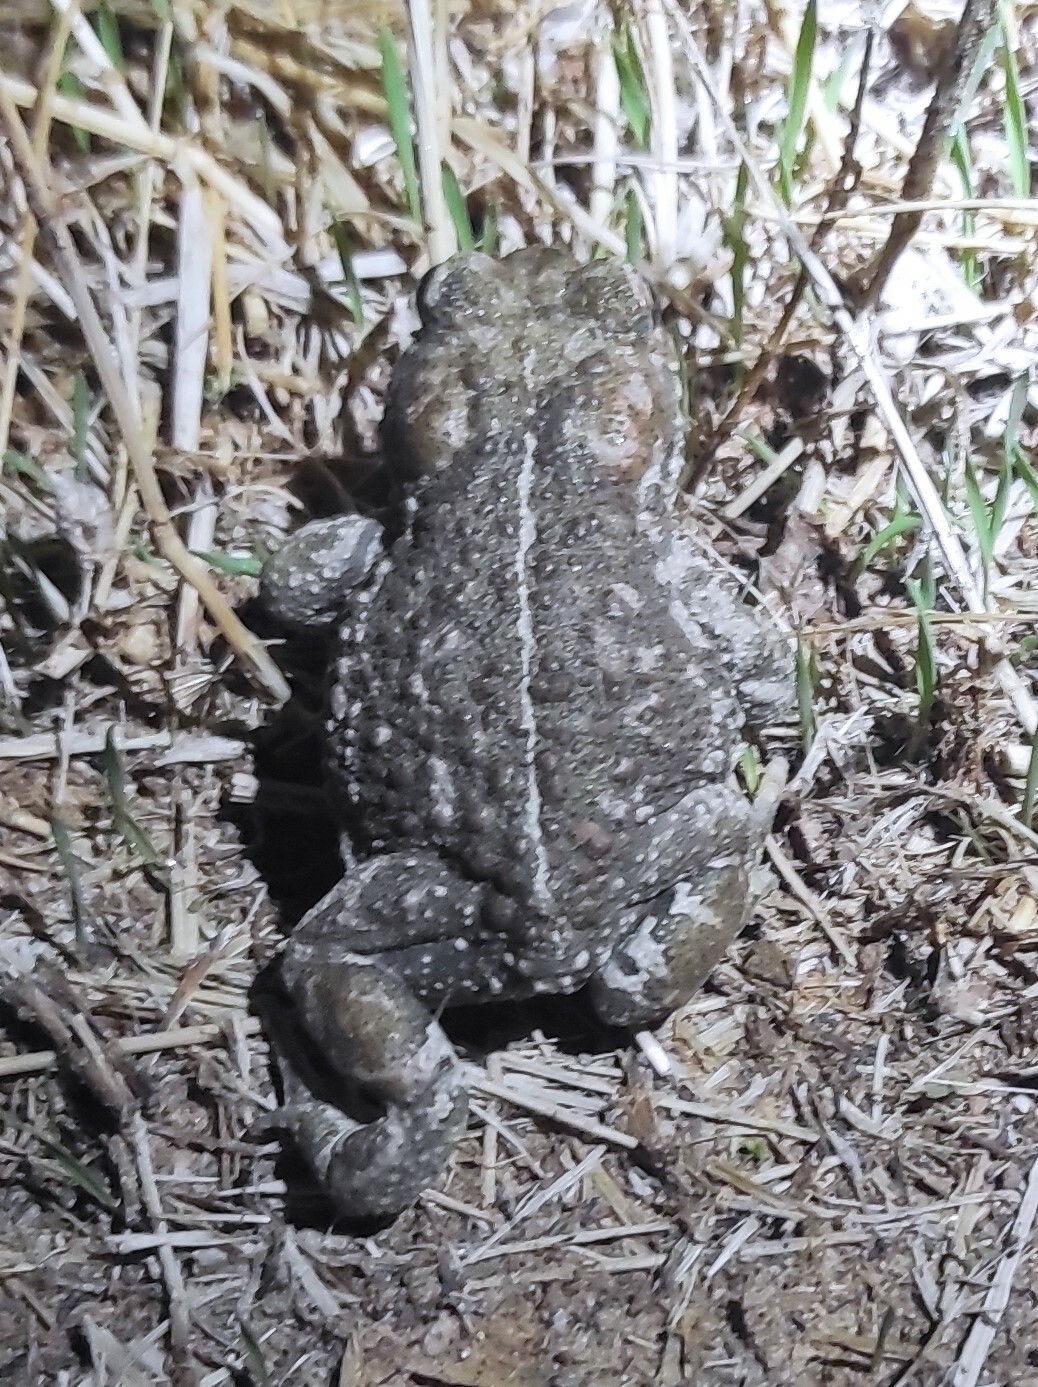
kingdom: Animalia
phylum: Chordata
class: Amphibia
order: Anura
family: Bufonidae
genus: Epidalea
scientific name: Epidalea calamita
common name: Natterjack toad
